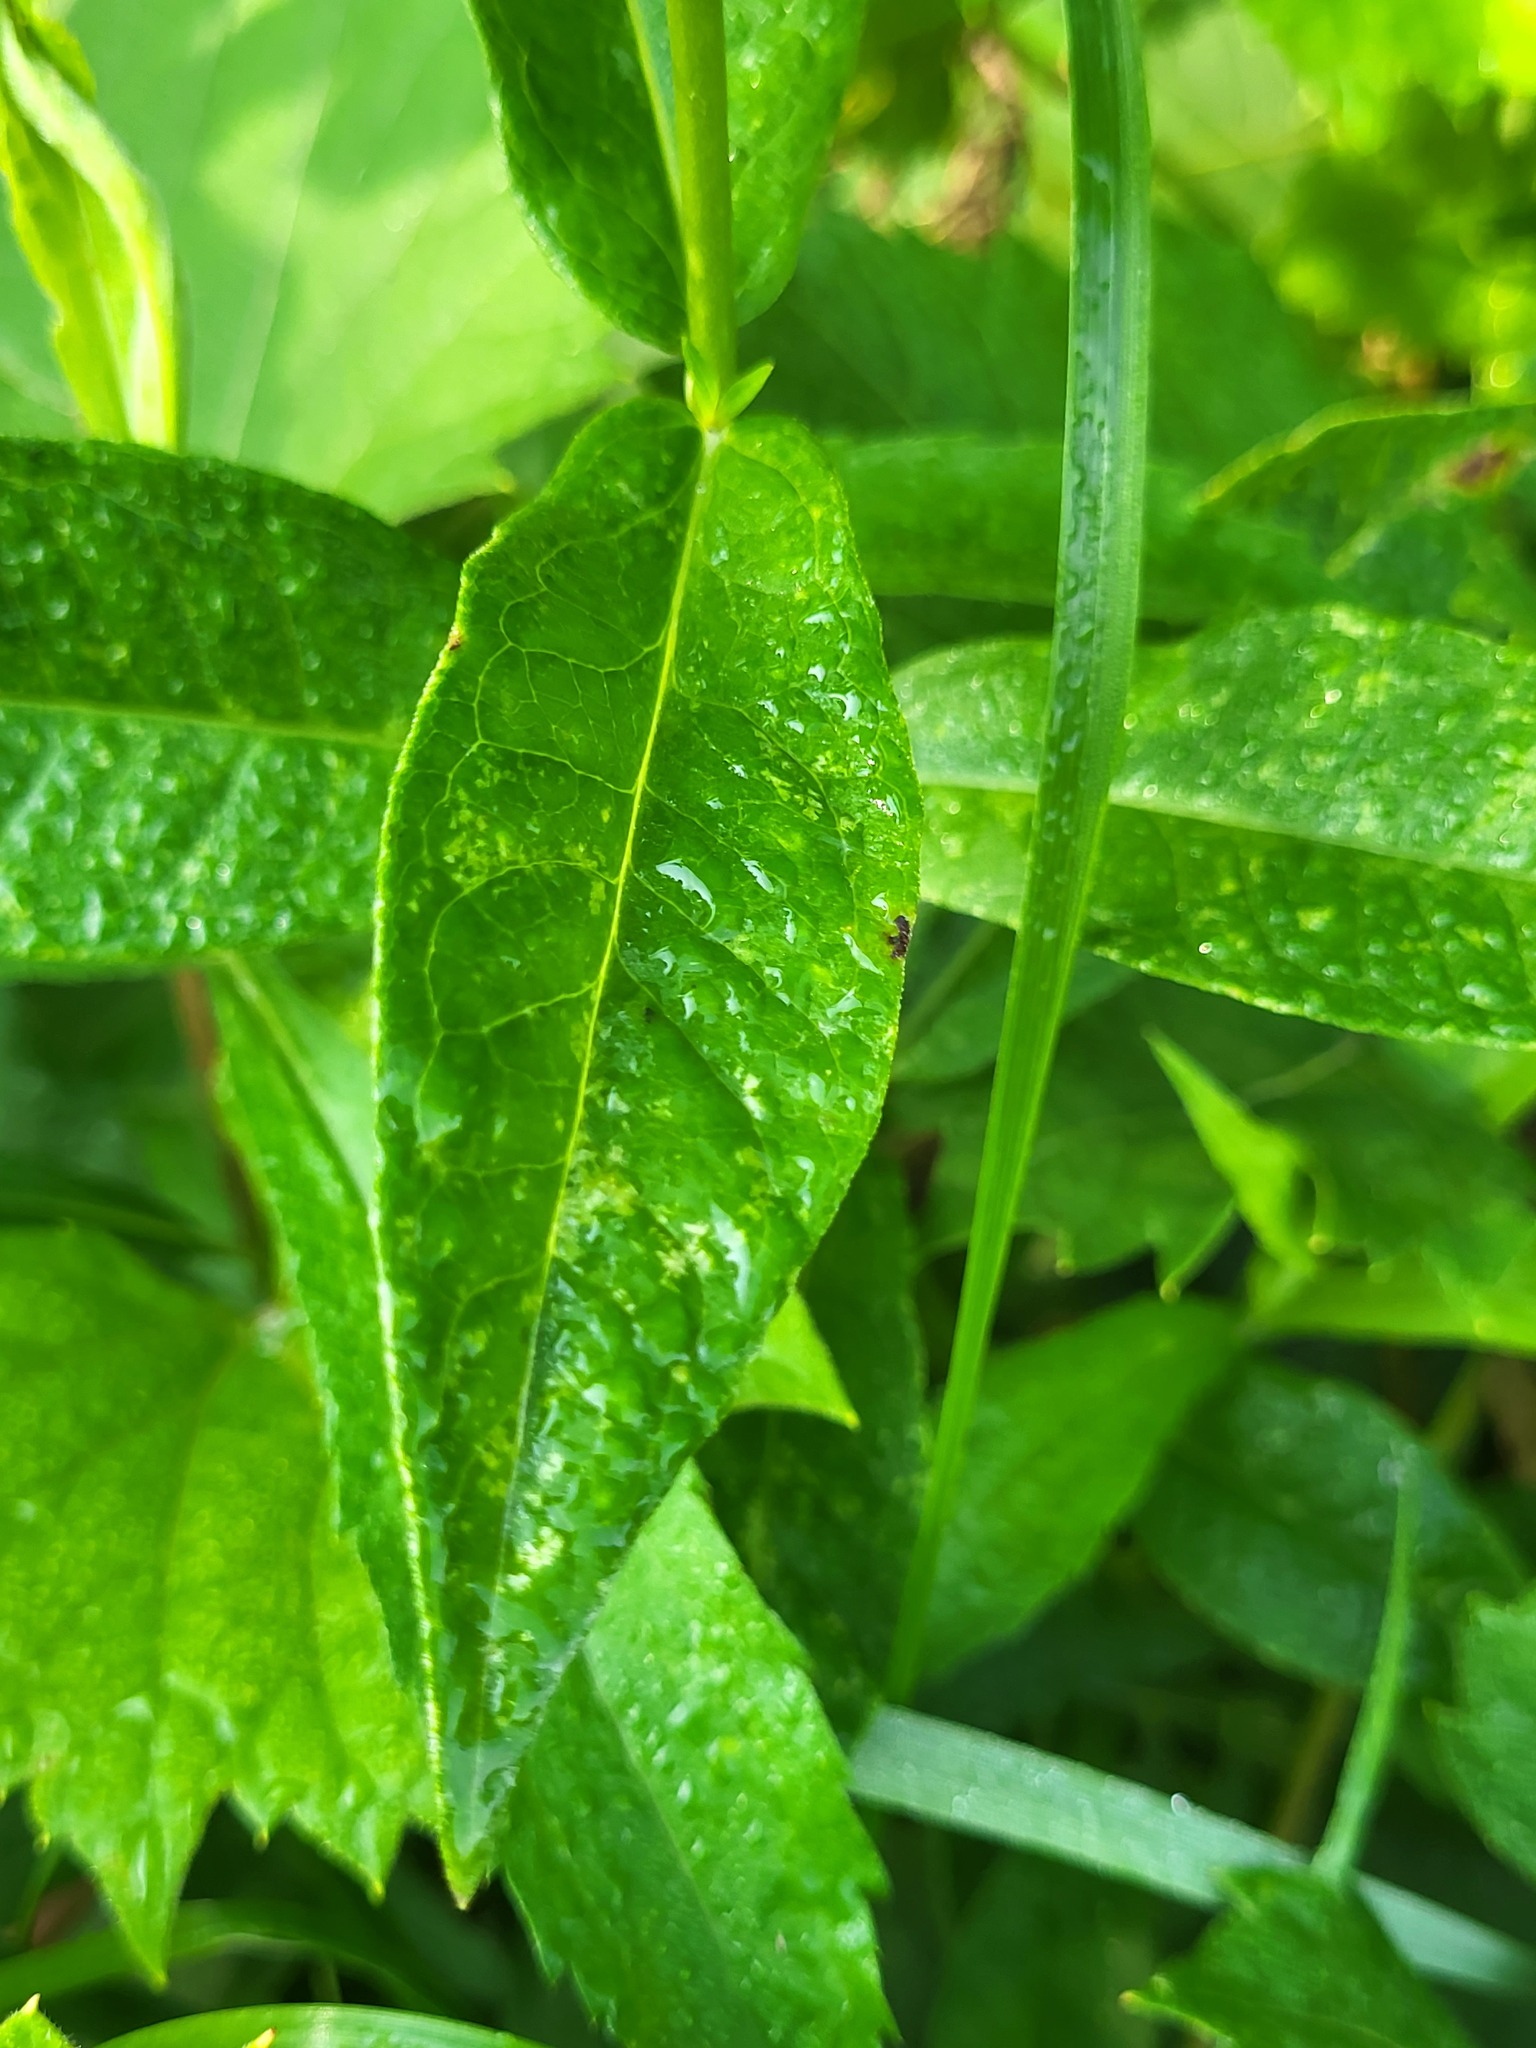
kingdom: Plantae
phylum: Tracheophyta
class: Magnoliopsida
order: Ericales
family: Polemoniaceae
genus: Phlox
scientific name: Phlox paniculata
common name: Fall phlox
